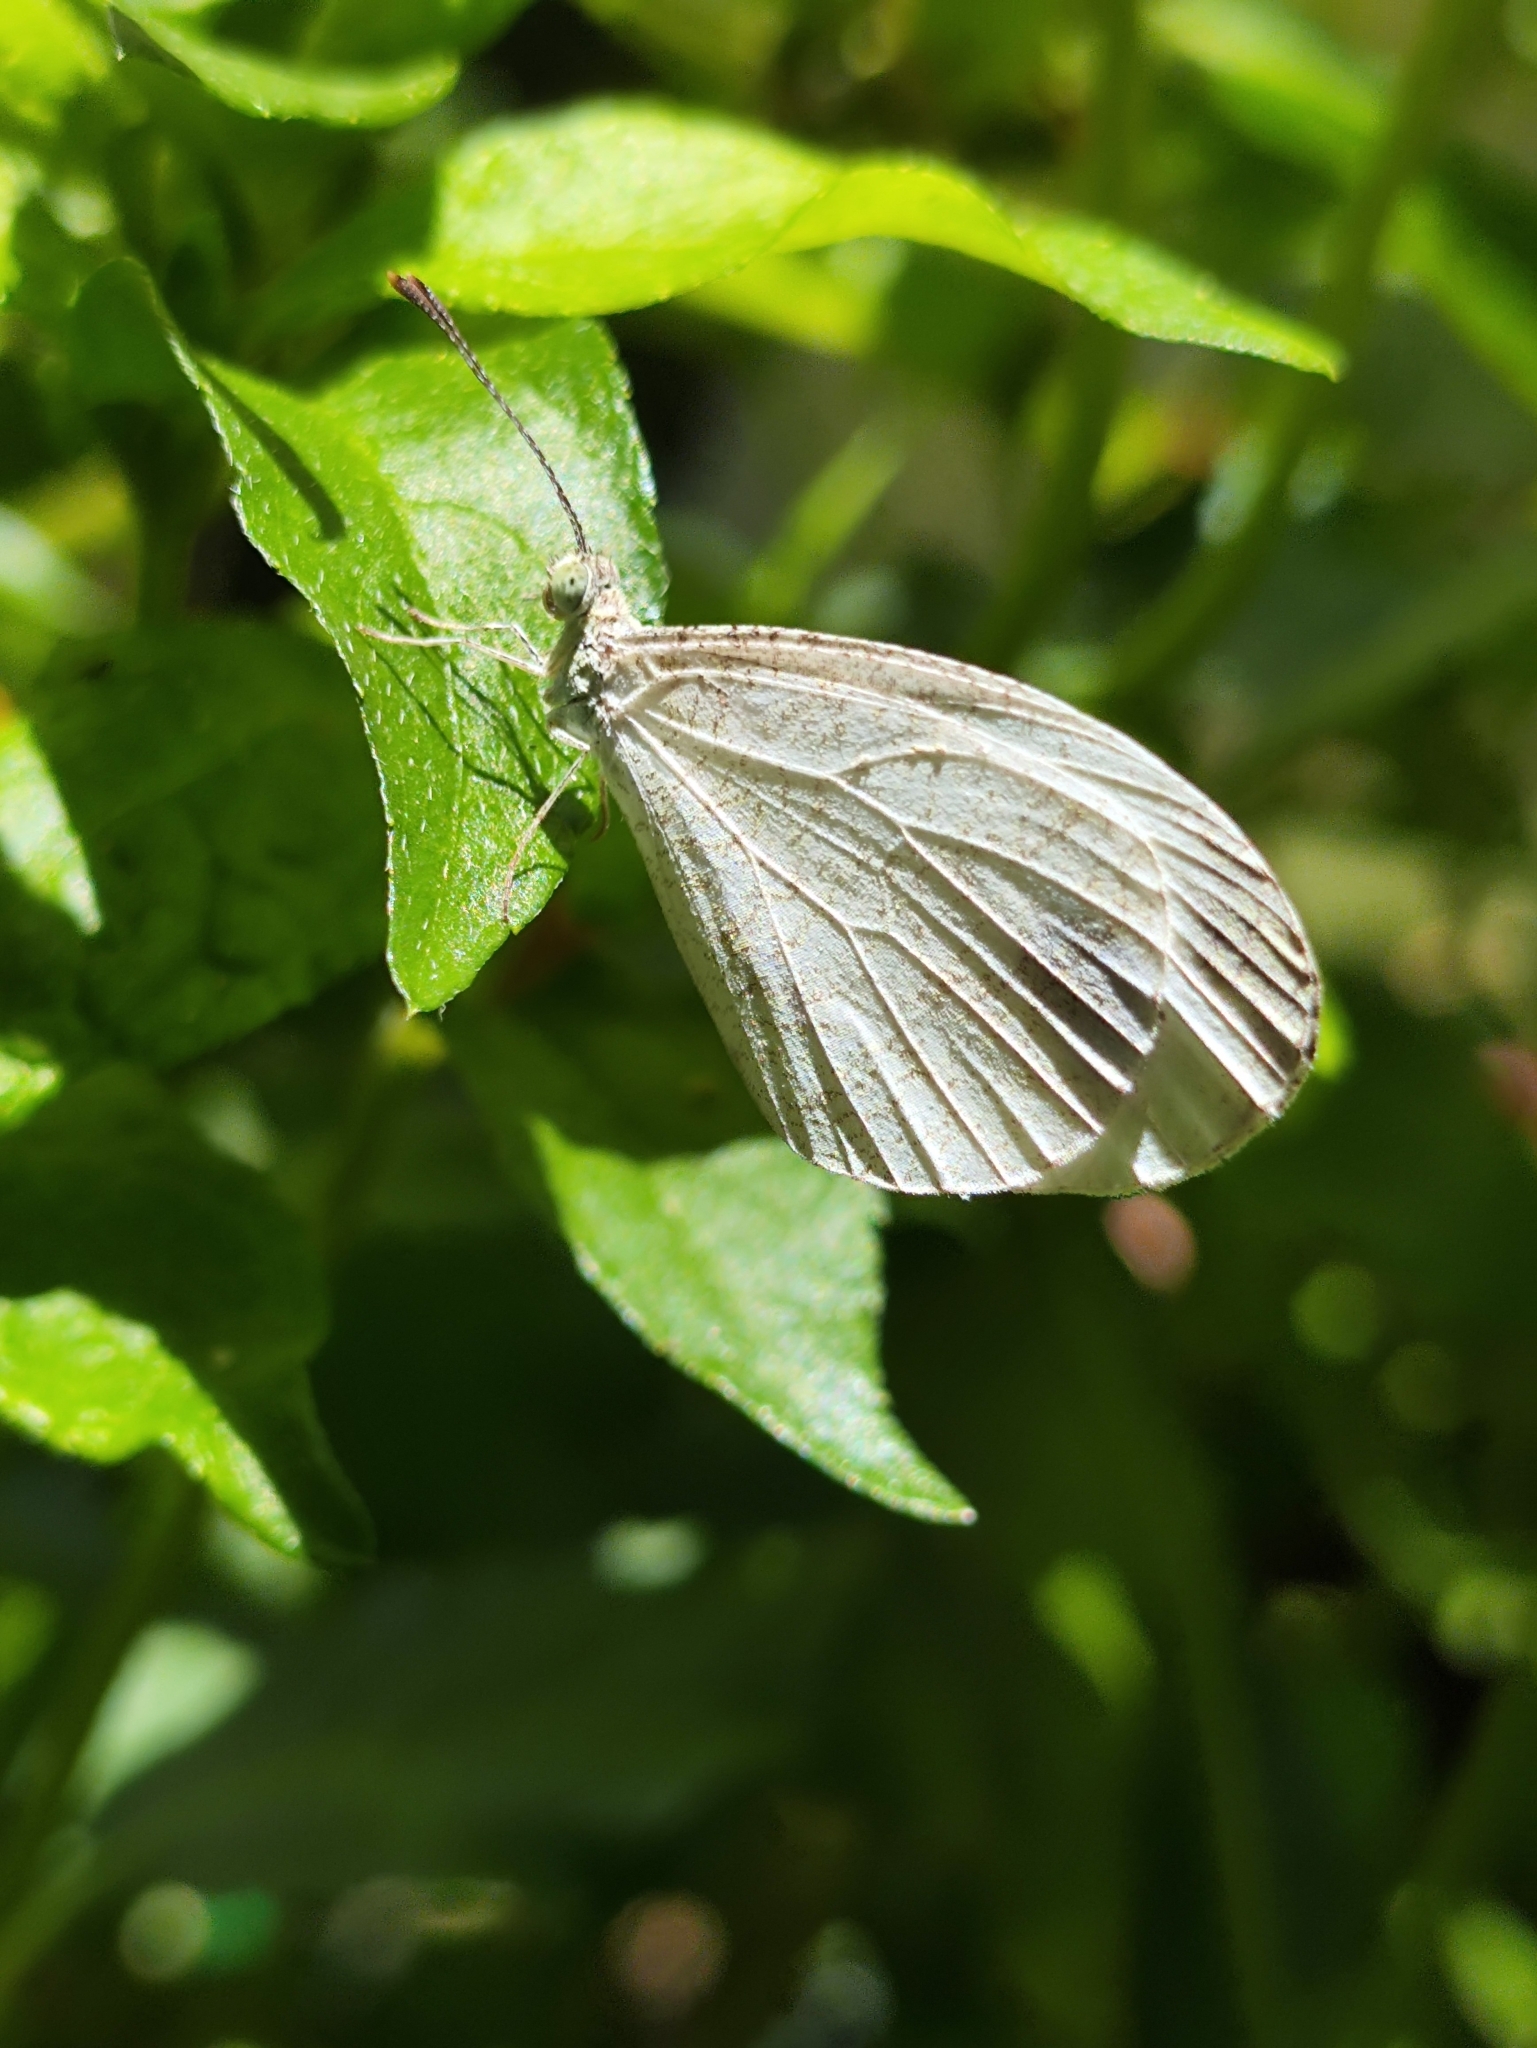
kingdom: Animalia
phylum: Arthropoda
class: Insecta
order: Lepidoptera
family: Pieridae
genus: Leptosia
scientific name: Leptosia nina
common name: Psyche
